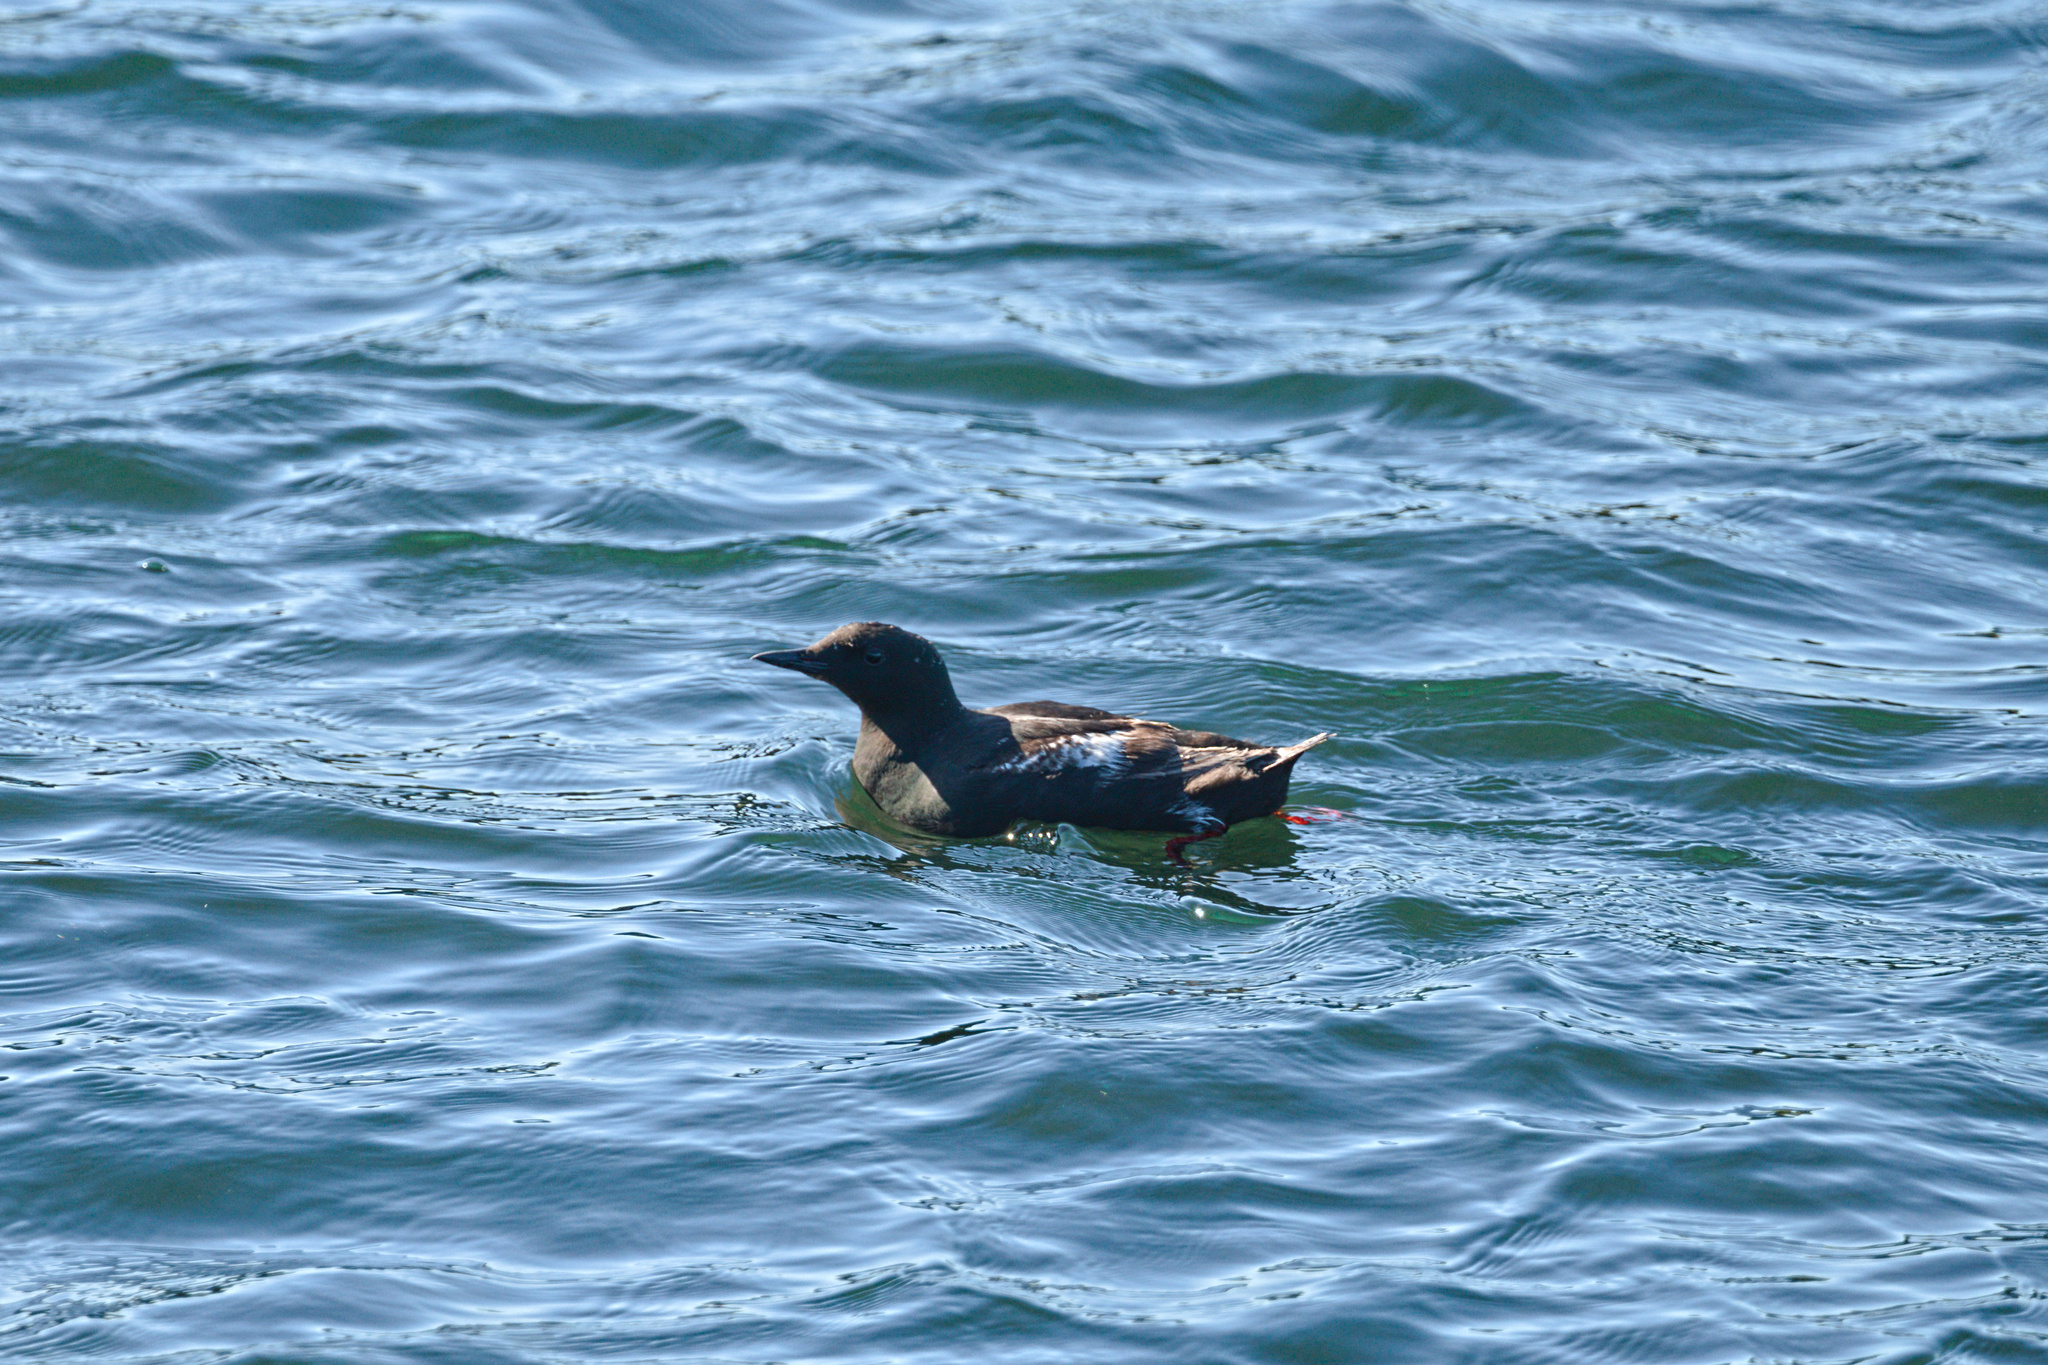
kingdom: Animalia
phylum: Chordata
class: Aves
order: Charadriiformes
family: Alcidae
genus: Cepphus
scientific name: Cepphus grylle
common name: Black guillemot
